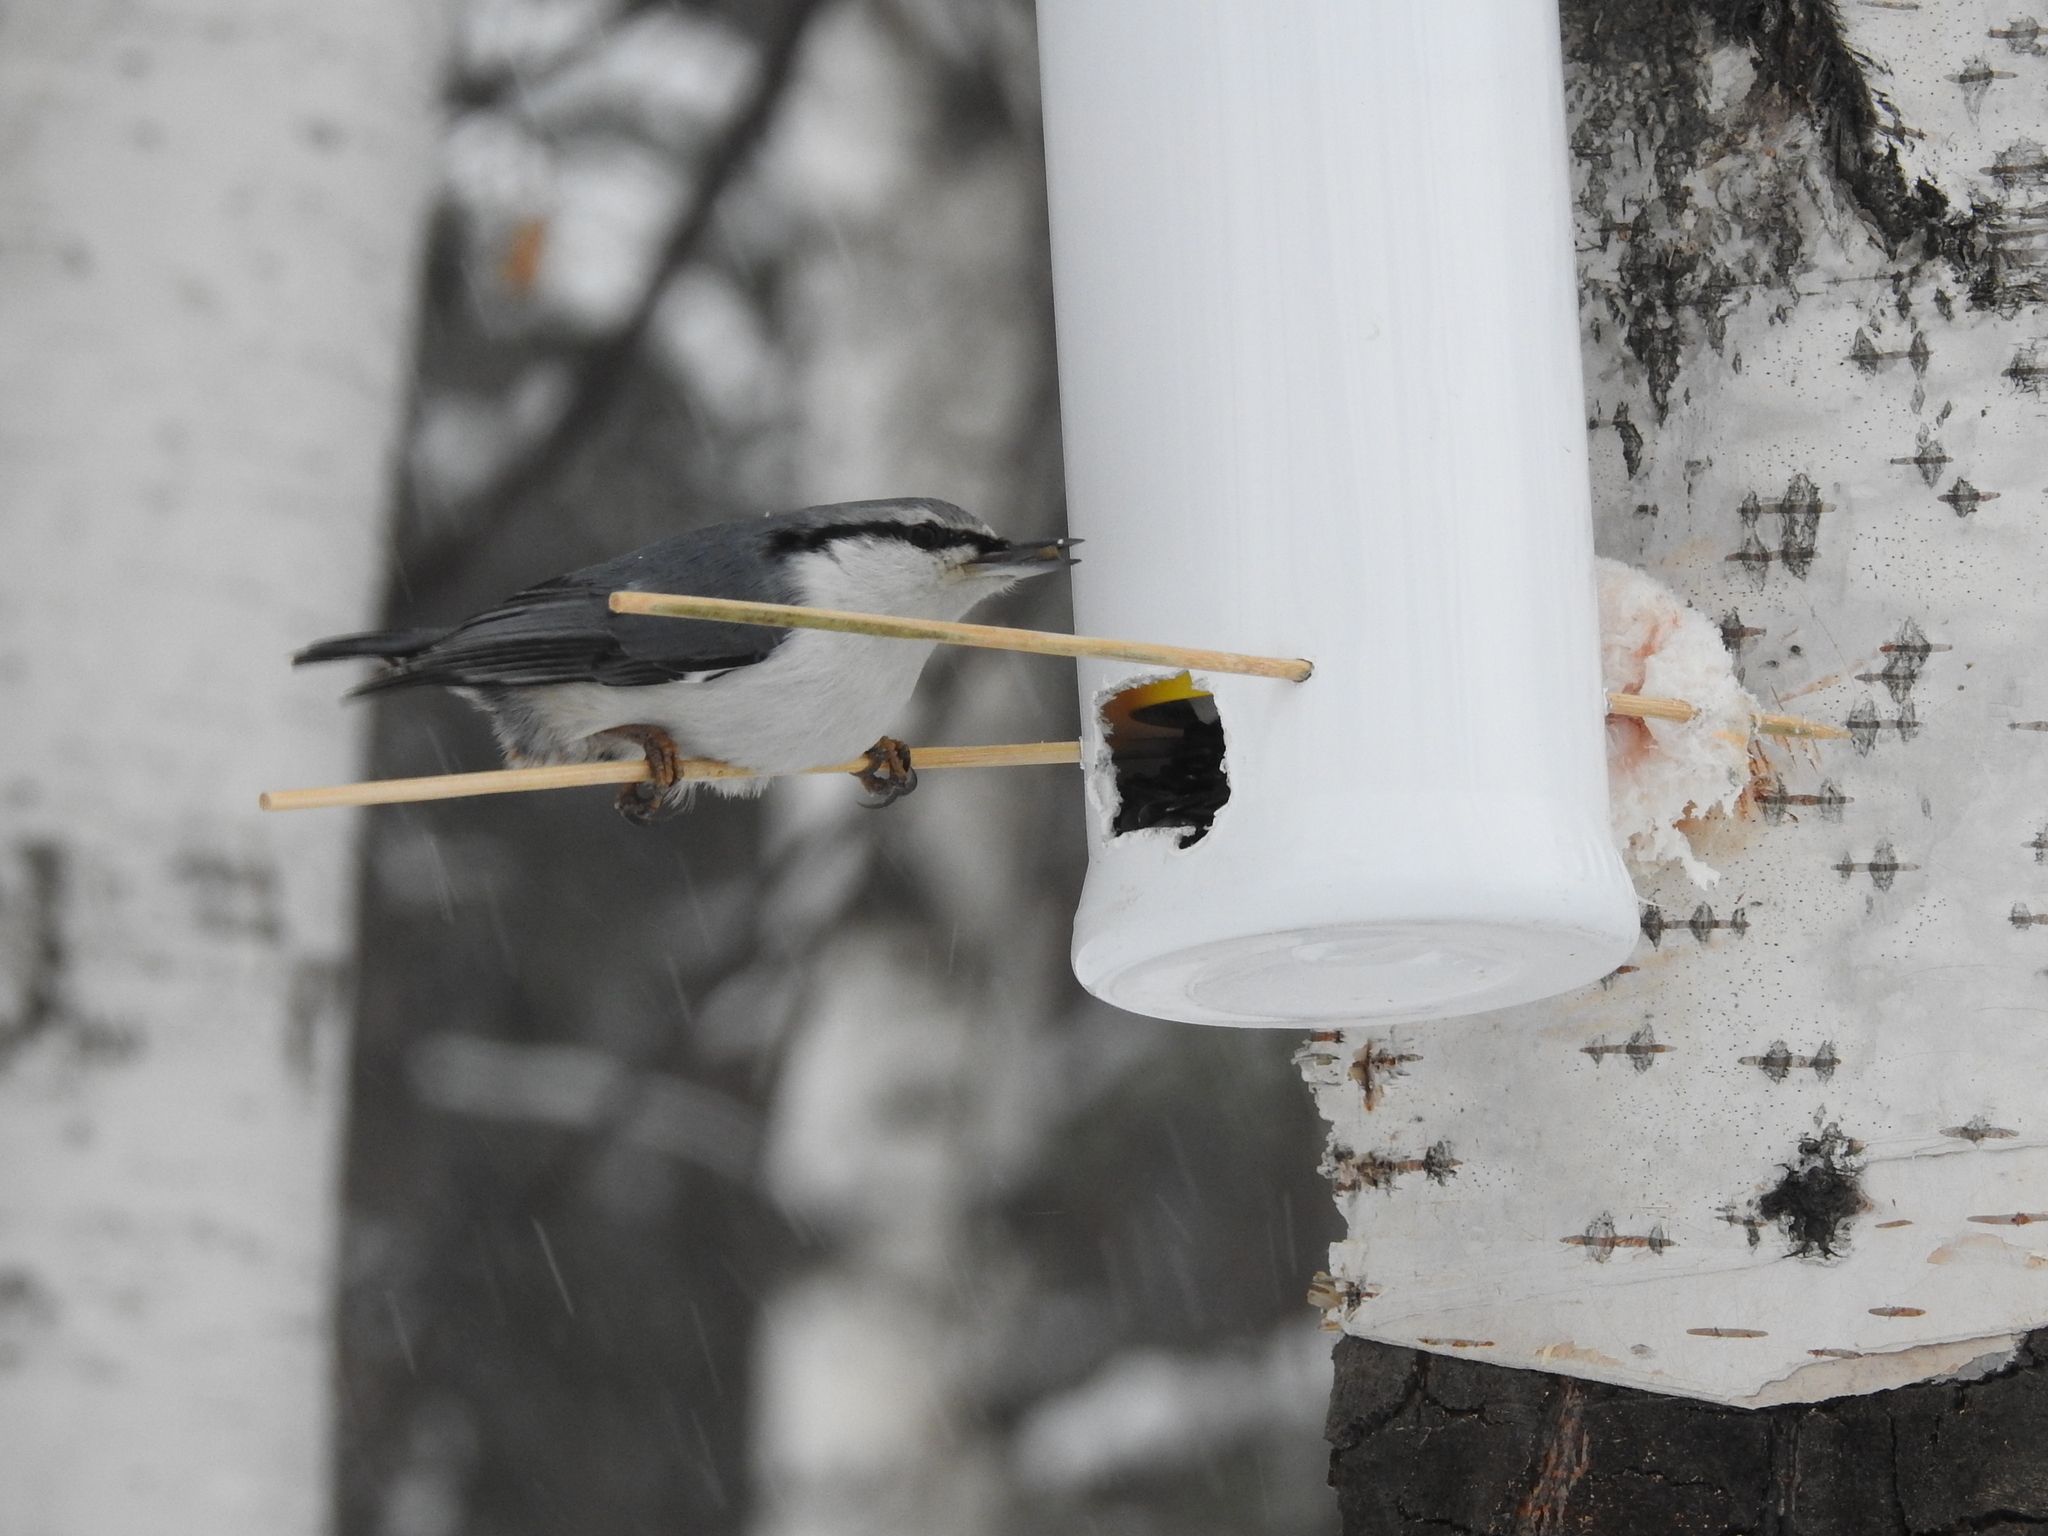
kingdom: Animalia
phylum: Chordata
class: Aves
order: Passeriformes
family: Sittidae
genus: Sitta
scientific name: Sitta europaea
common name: Eurasian nuthatch
